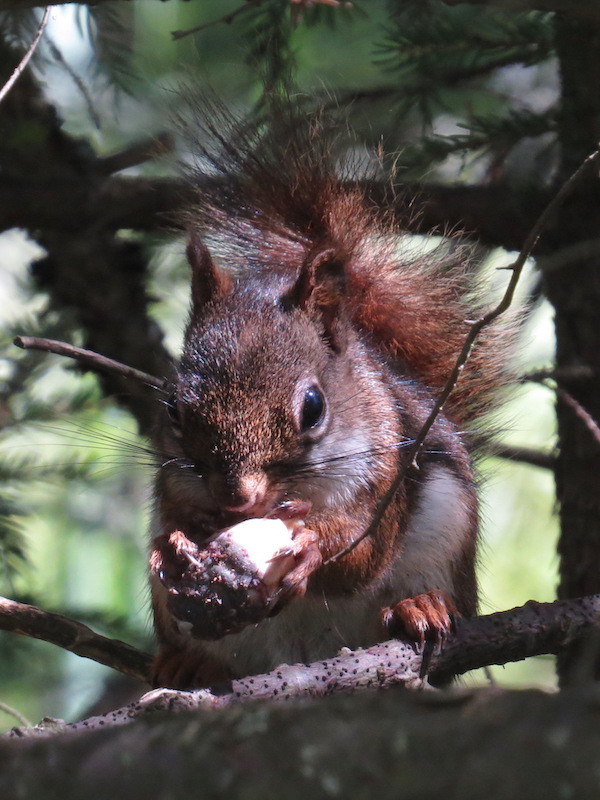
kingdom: Animalia
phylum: Chordata
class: Mammalia
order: Rodentia
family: Sciuridae
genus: Tamiasciurus
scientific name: Tamiasciurus hudsonicus
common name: Red squirrel
